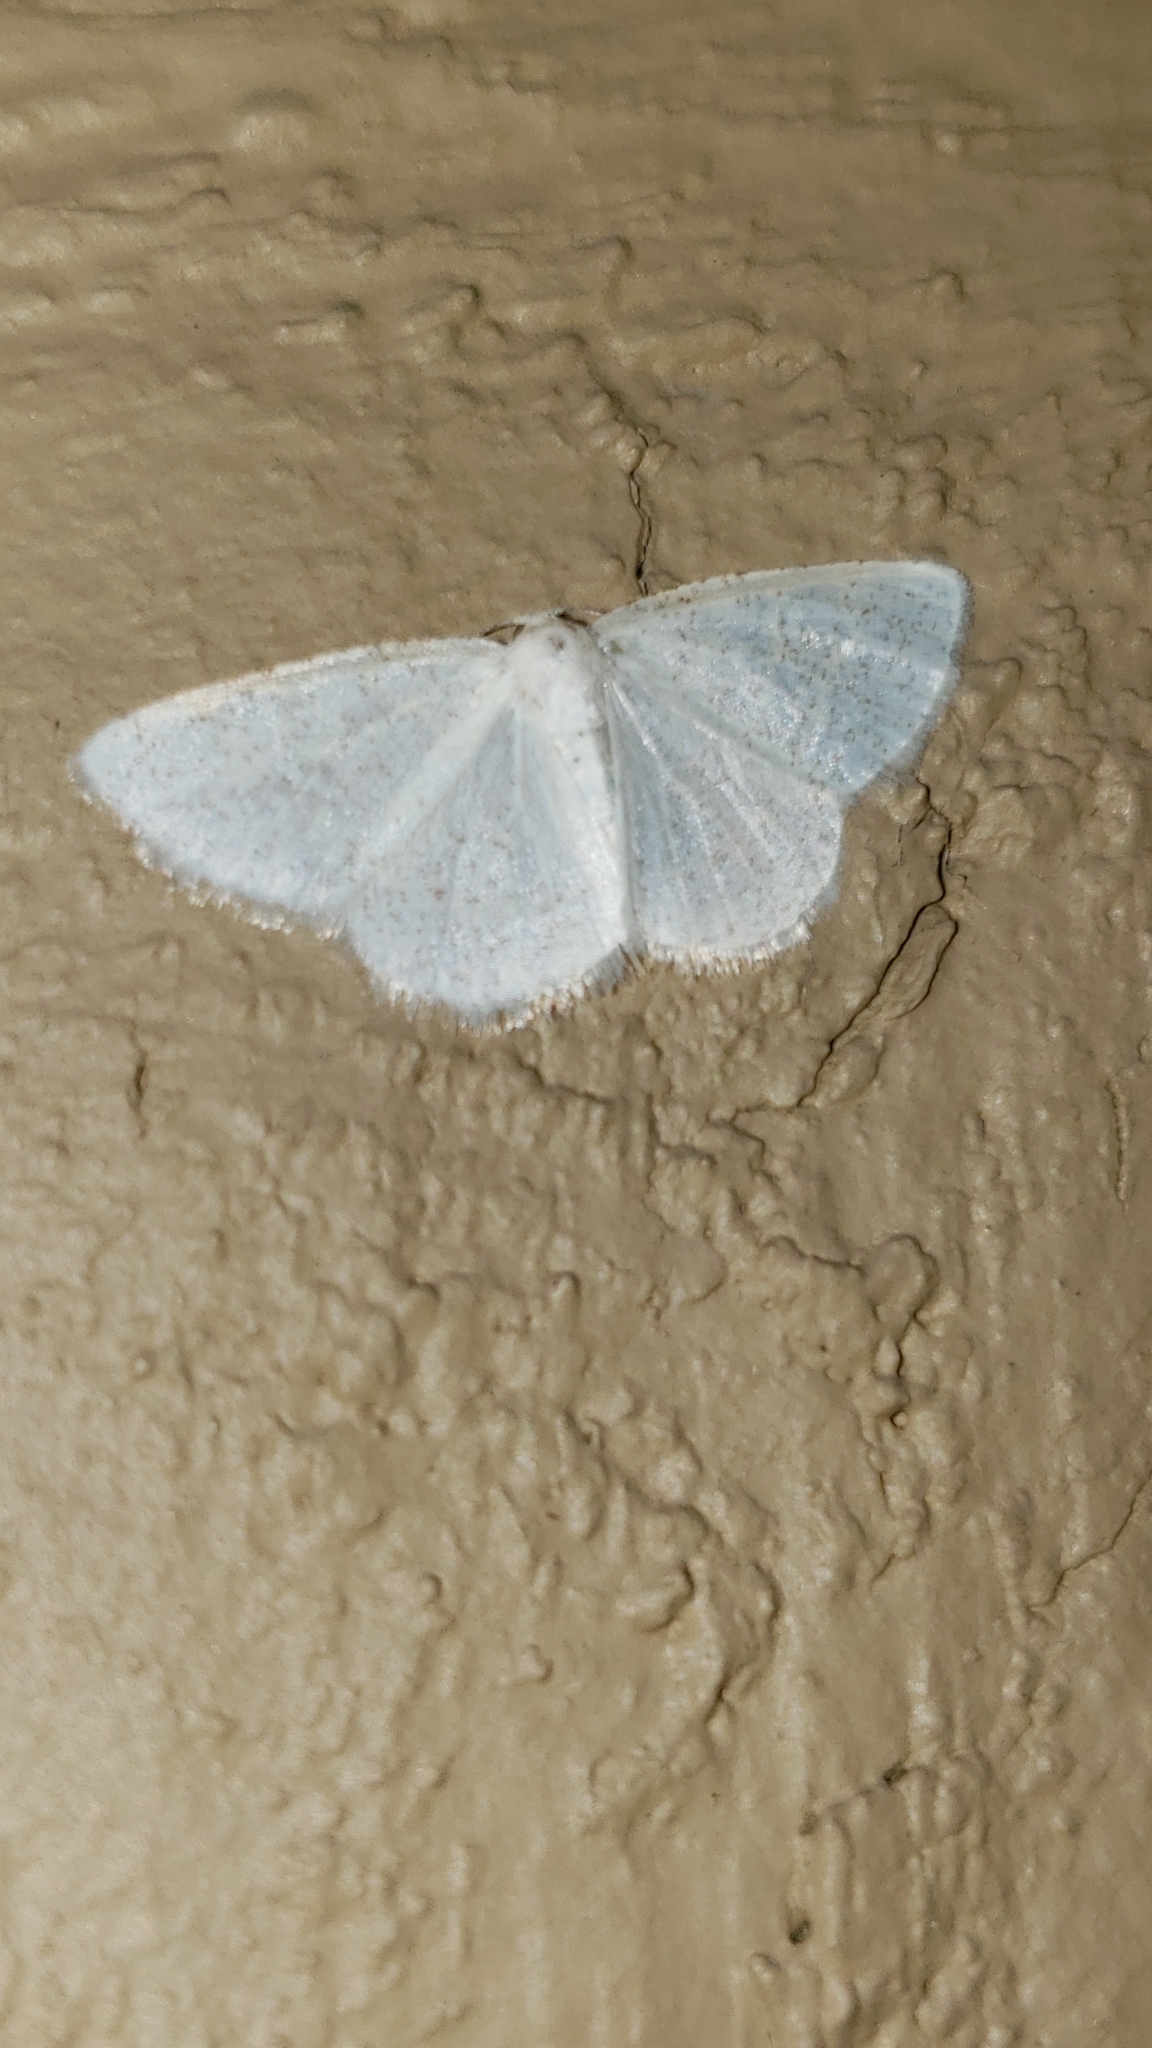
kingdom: Animalia
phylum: Arthropoda
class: Insecta
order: Lepidoptera
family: Geometridae
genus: Cabera
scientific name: Cabera variolaria
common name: Pink-striped willow spanworm
